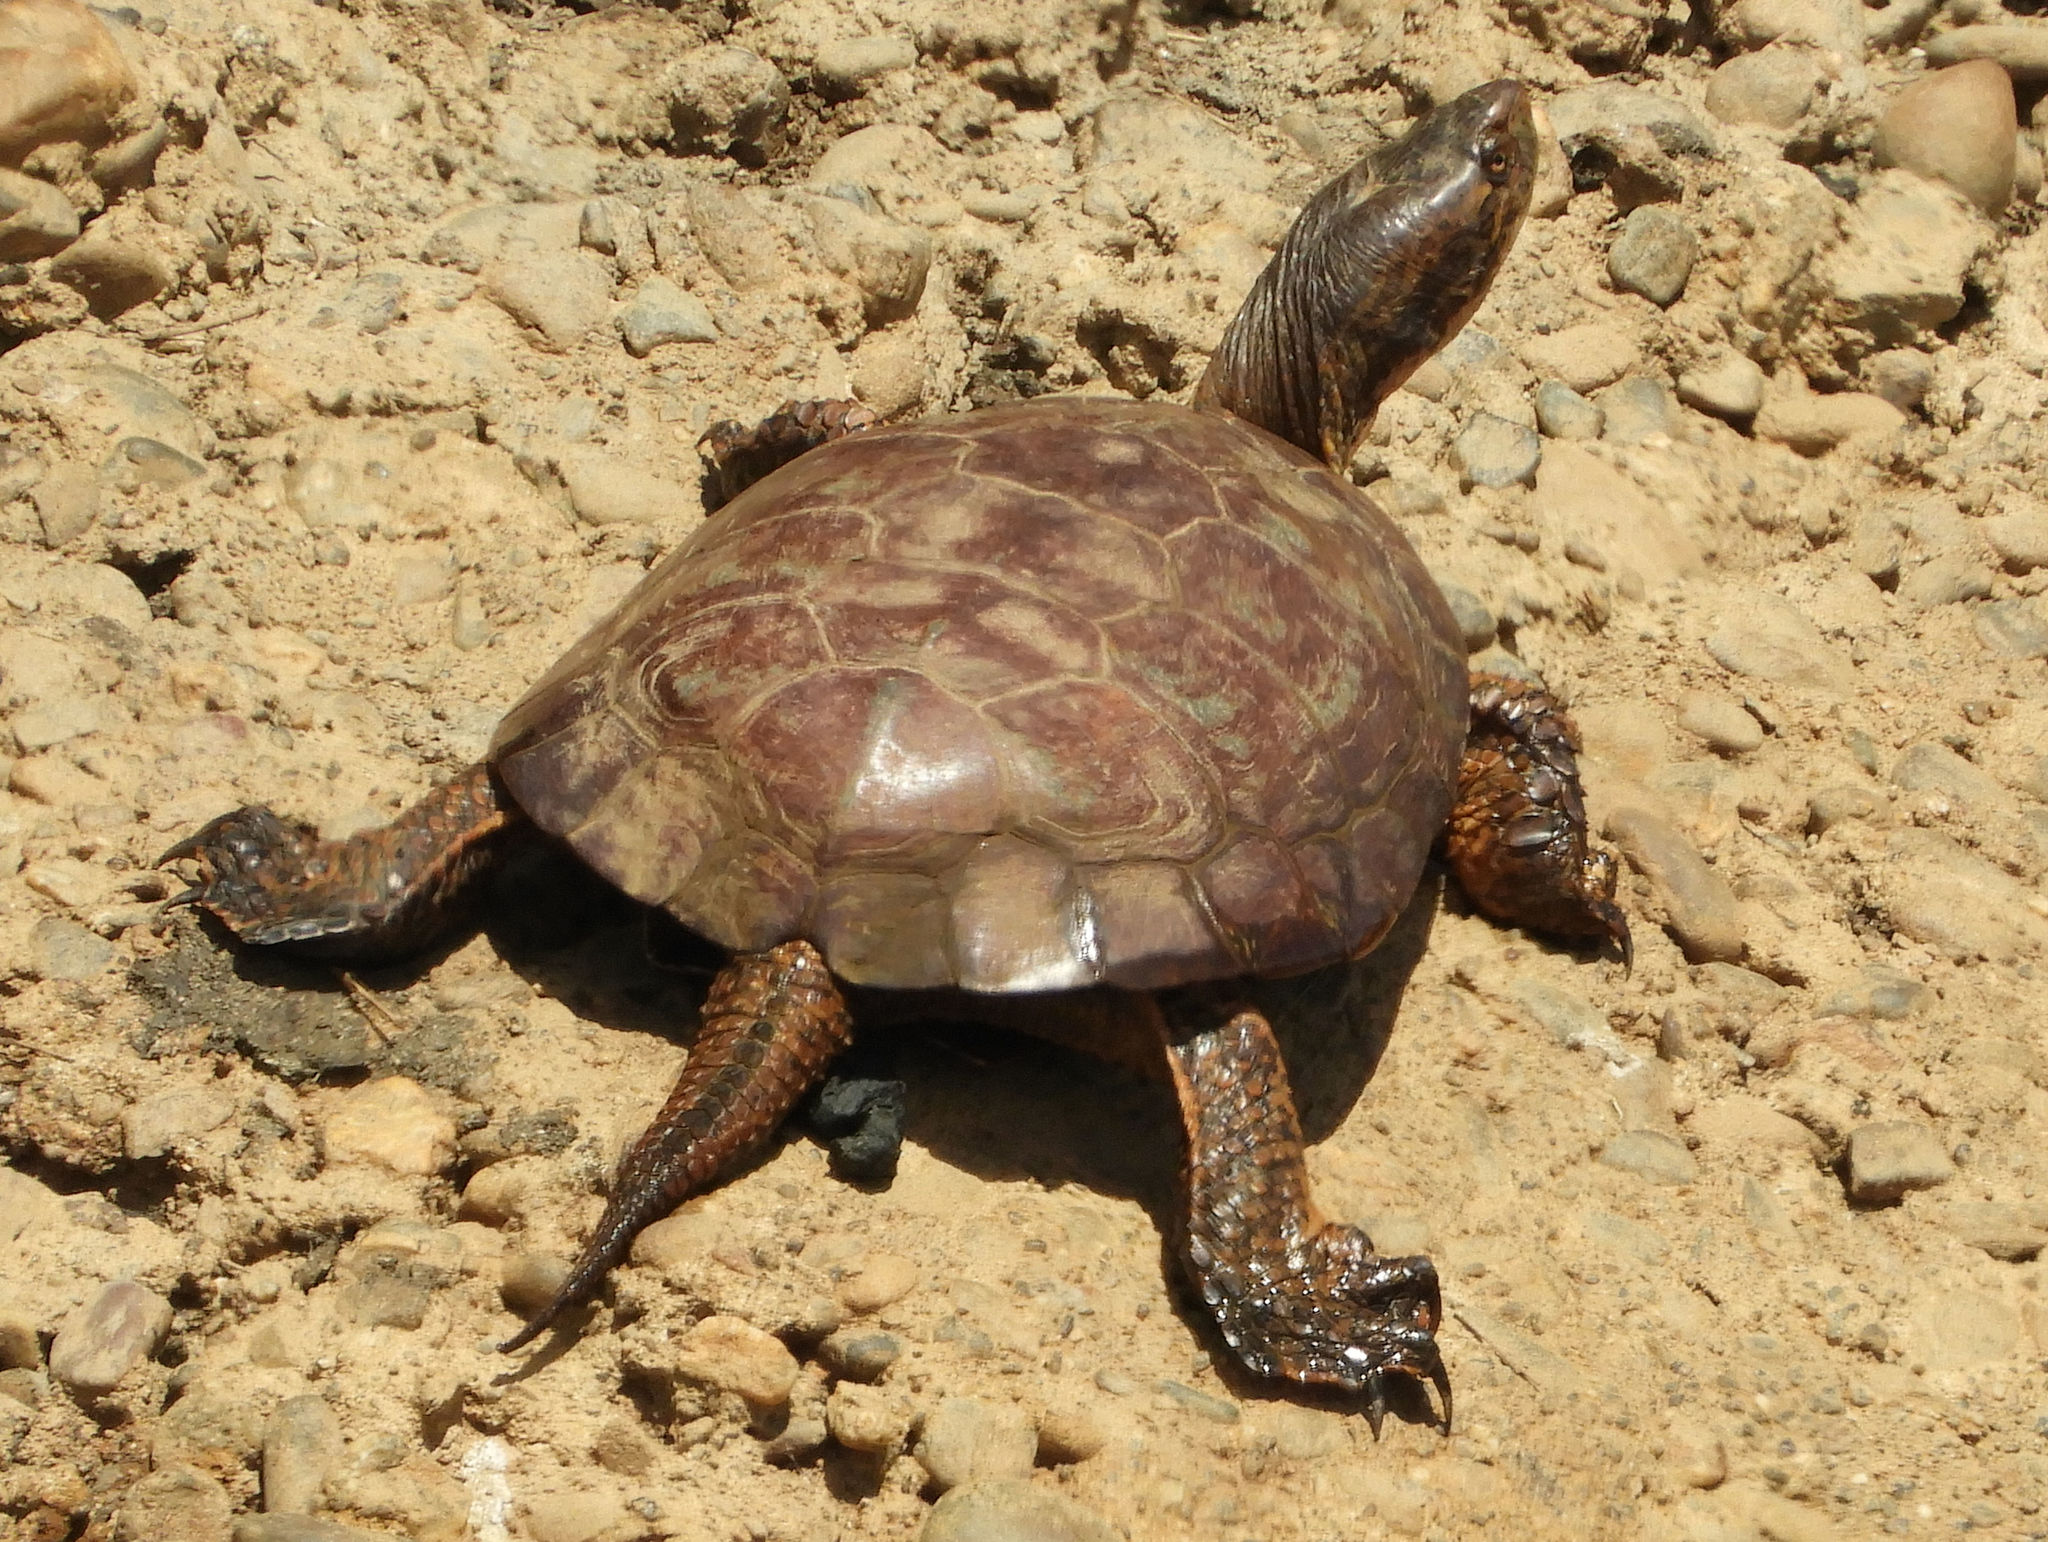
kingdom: Animalia
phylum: Chordata
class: Testudines
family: Emydidae
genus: Actinemys
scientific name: Actinemys marmorata
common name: Western pond turtle
